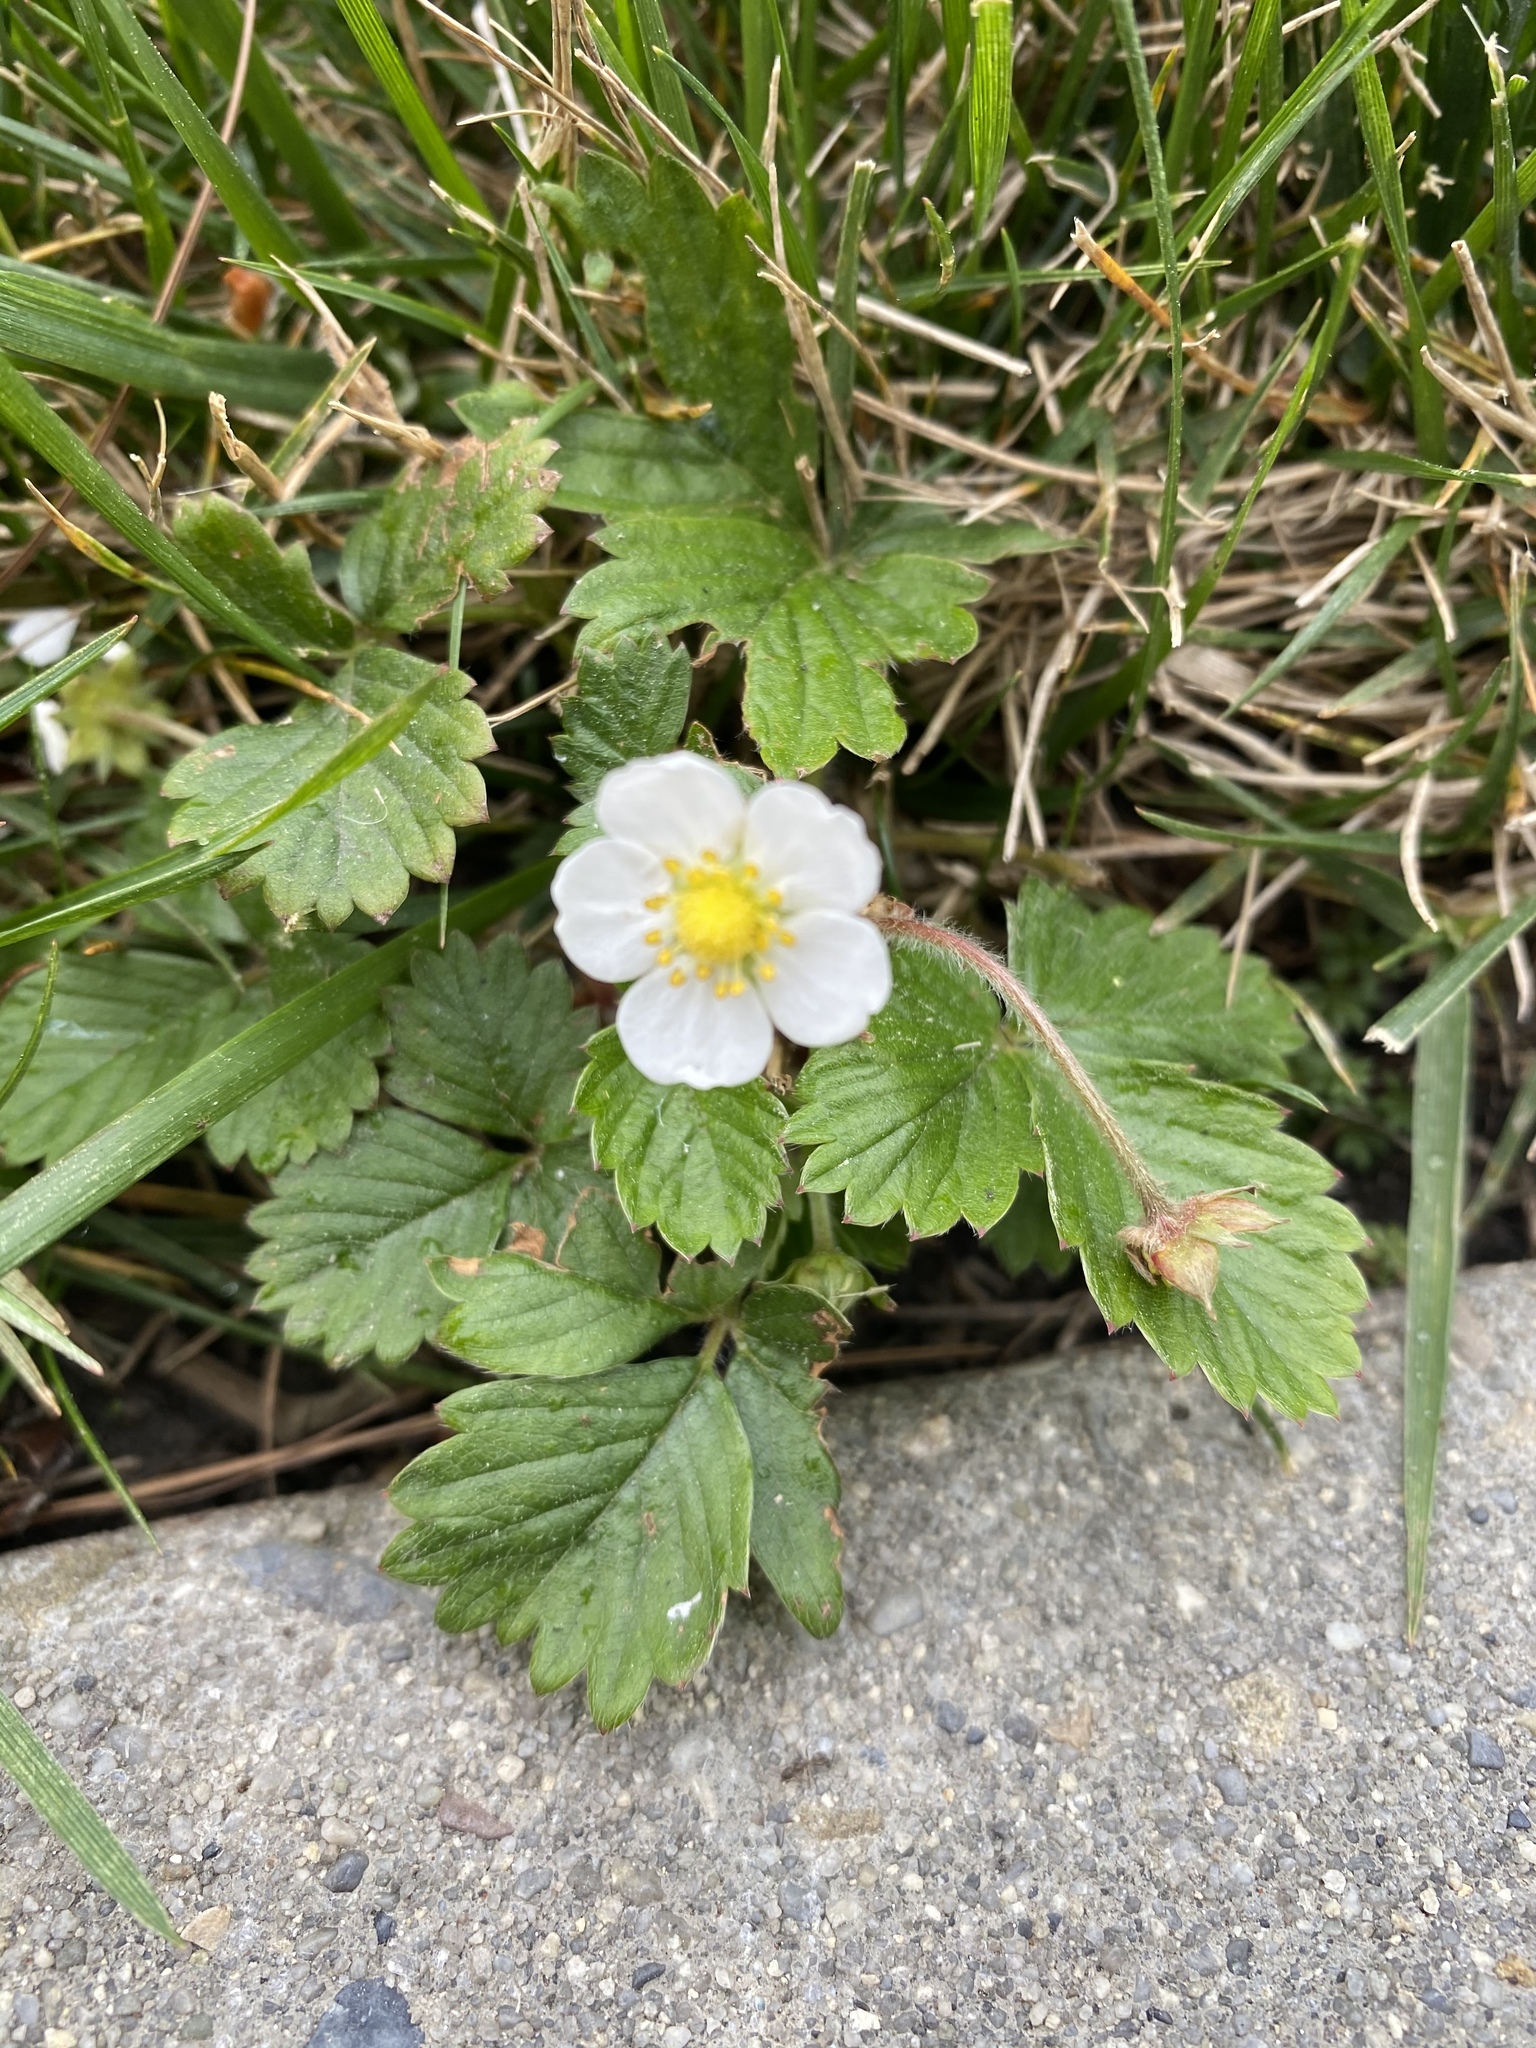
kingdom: Plantae
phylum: Tracheophyta
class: Magnoliopsida
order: Rosales
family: Rosaceae
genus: Fragaria
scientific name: Fragaria vesca
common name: Wild strawberry
